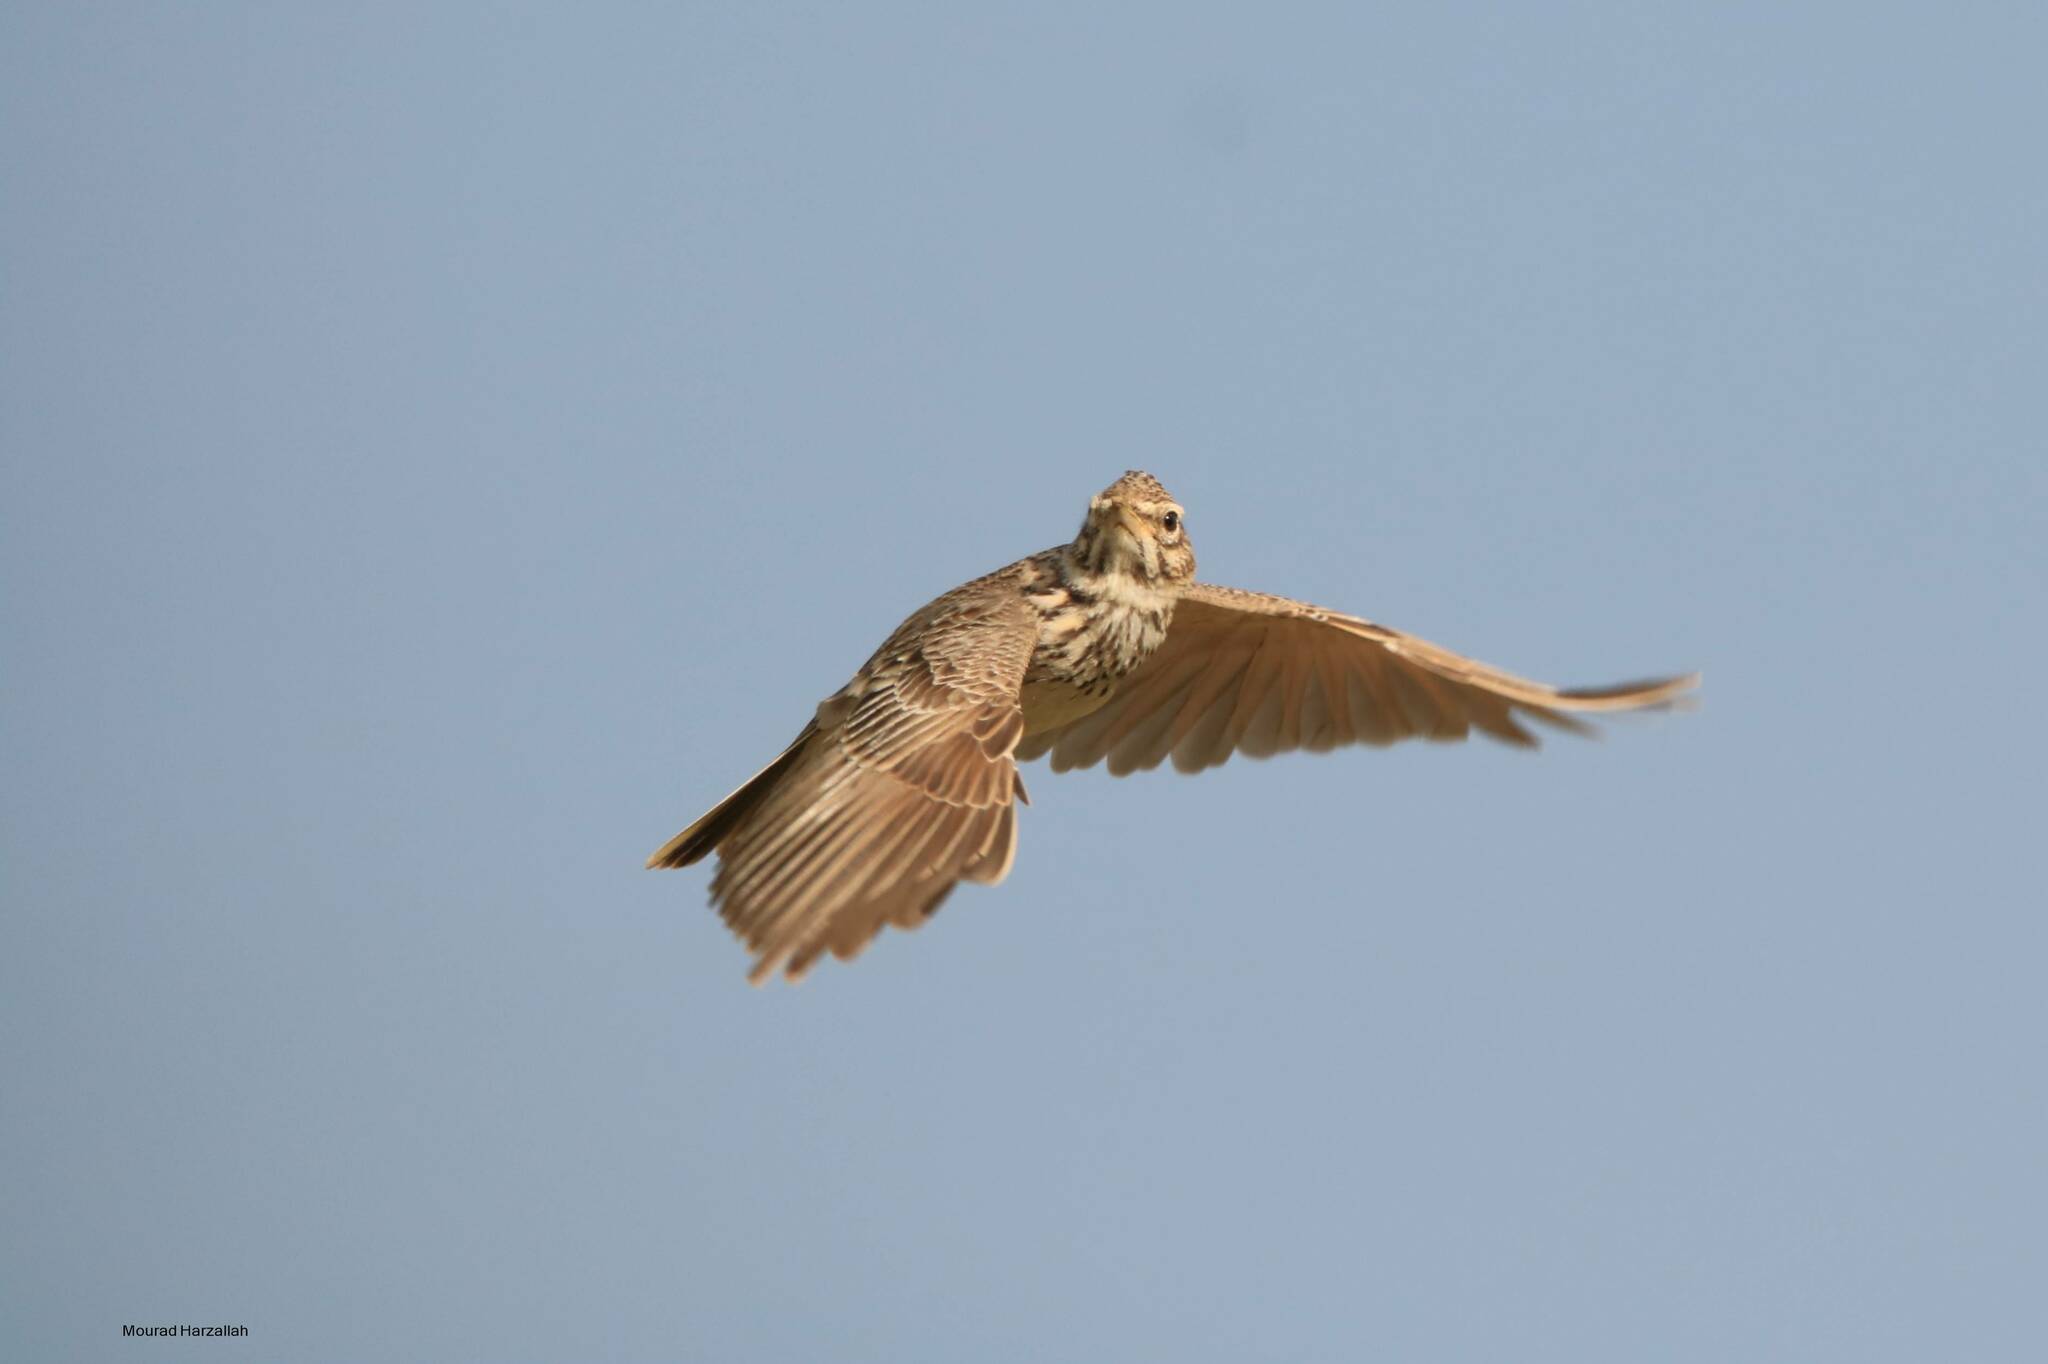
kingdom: Animalia
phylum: Chordata
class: Aves
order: Passeriformes
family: Alaudidae
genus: Galerida
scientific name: Galerida cristata
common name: Crested lark
